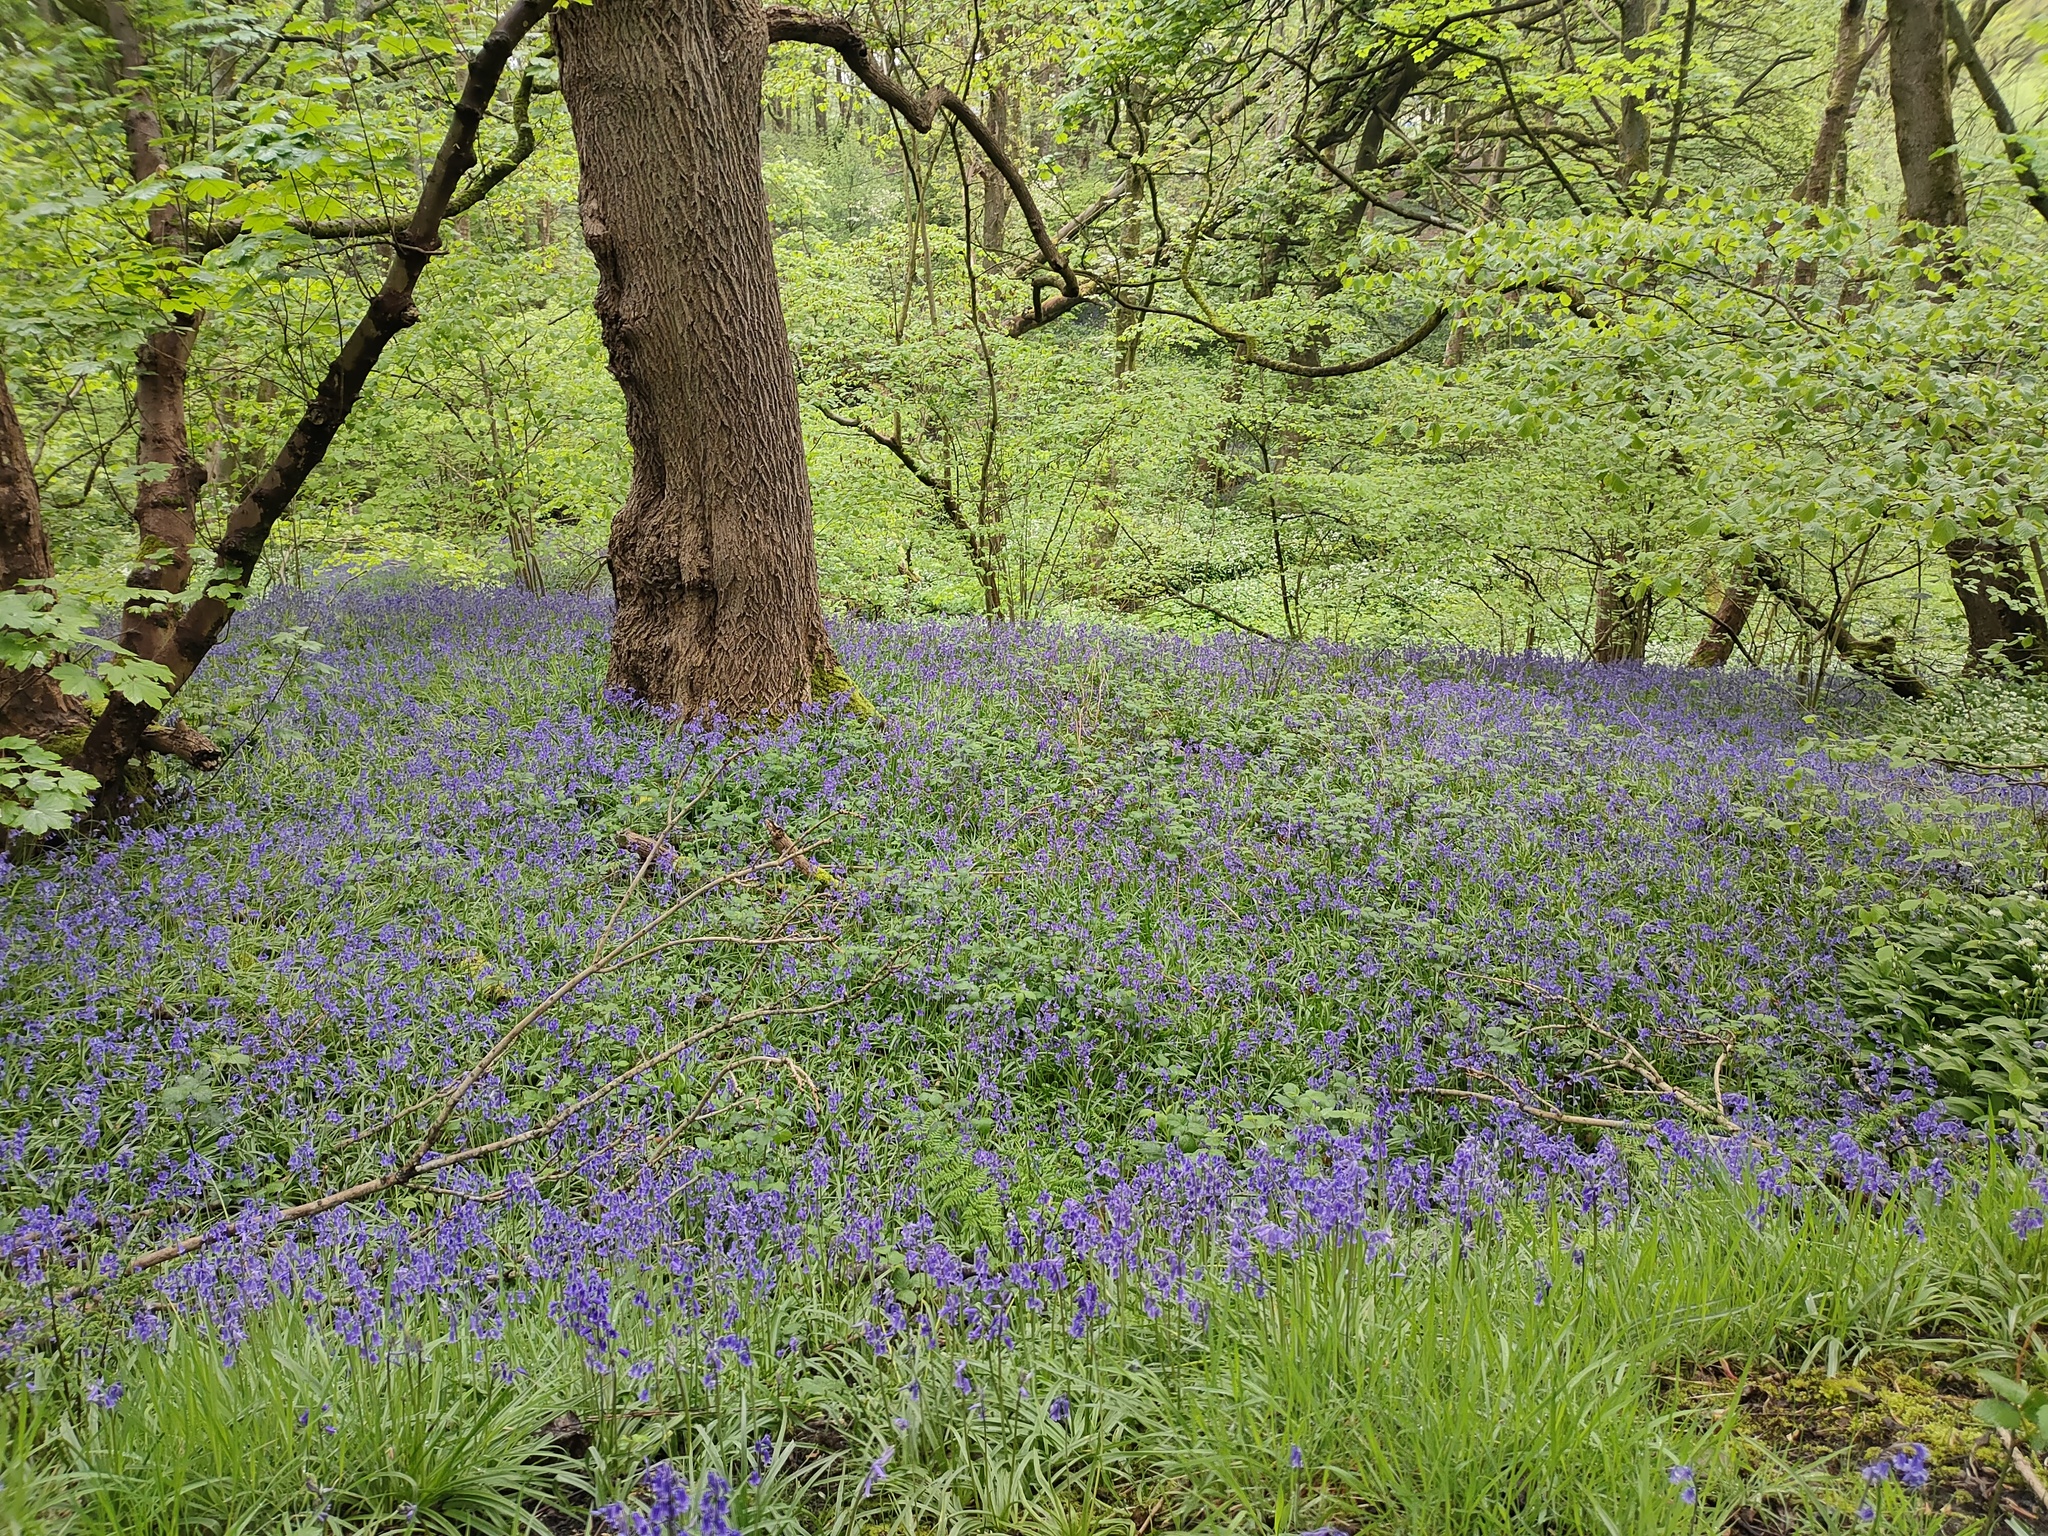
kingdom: Plantae
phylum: Tracheophyta
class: Liliopsida
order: Asparagales
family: Asparagaceae
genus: Hyacinthoides
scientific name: Hyacinthoides non-scripta
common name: Bluebell
